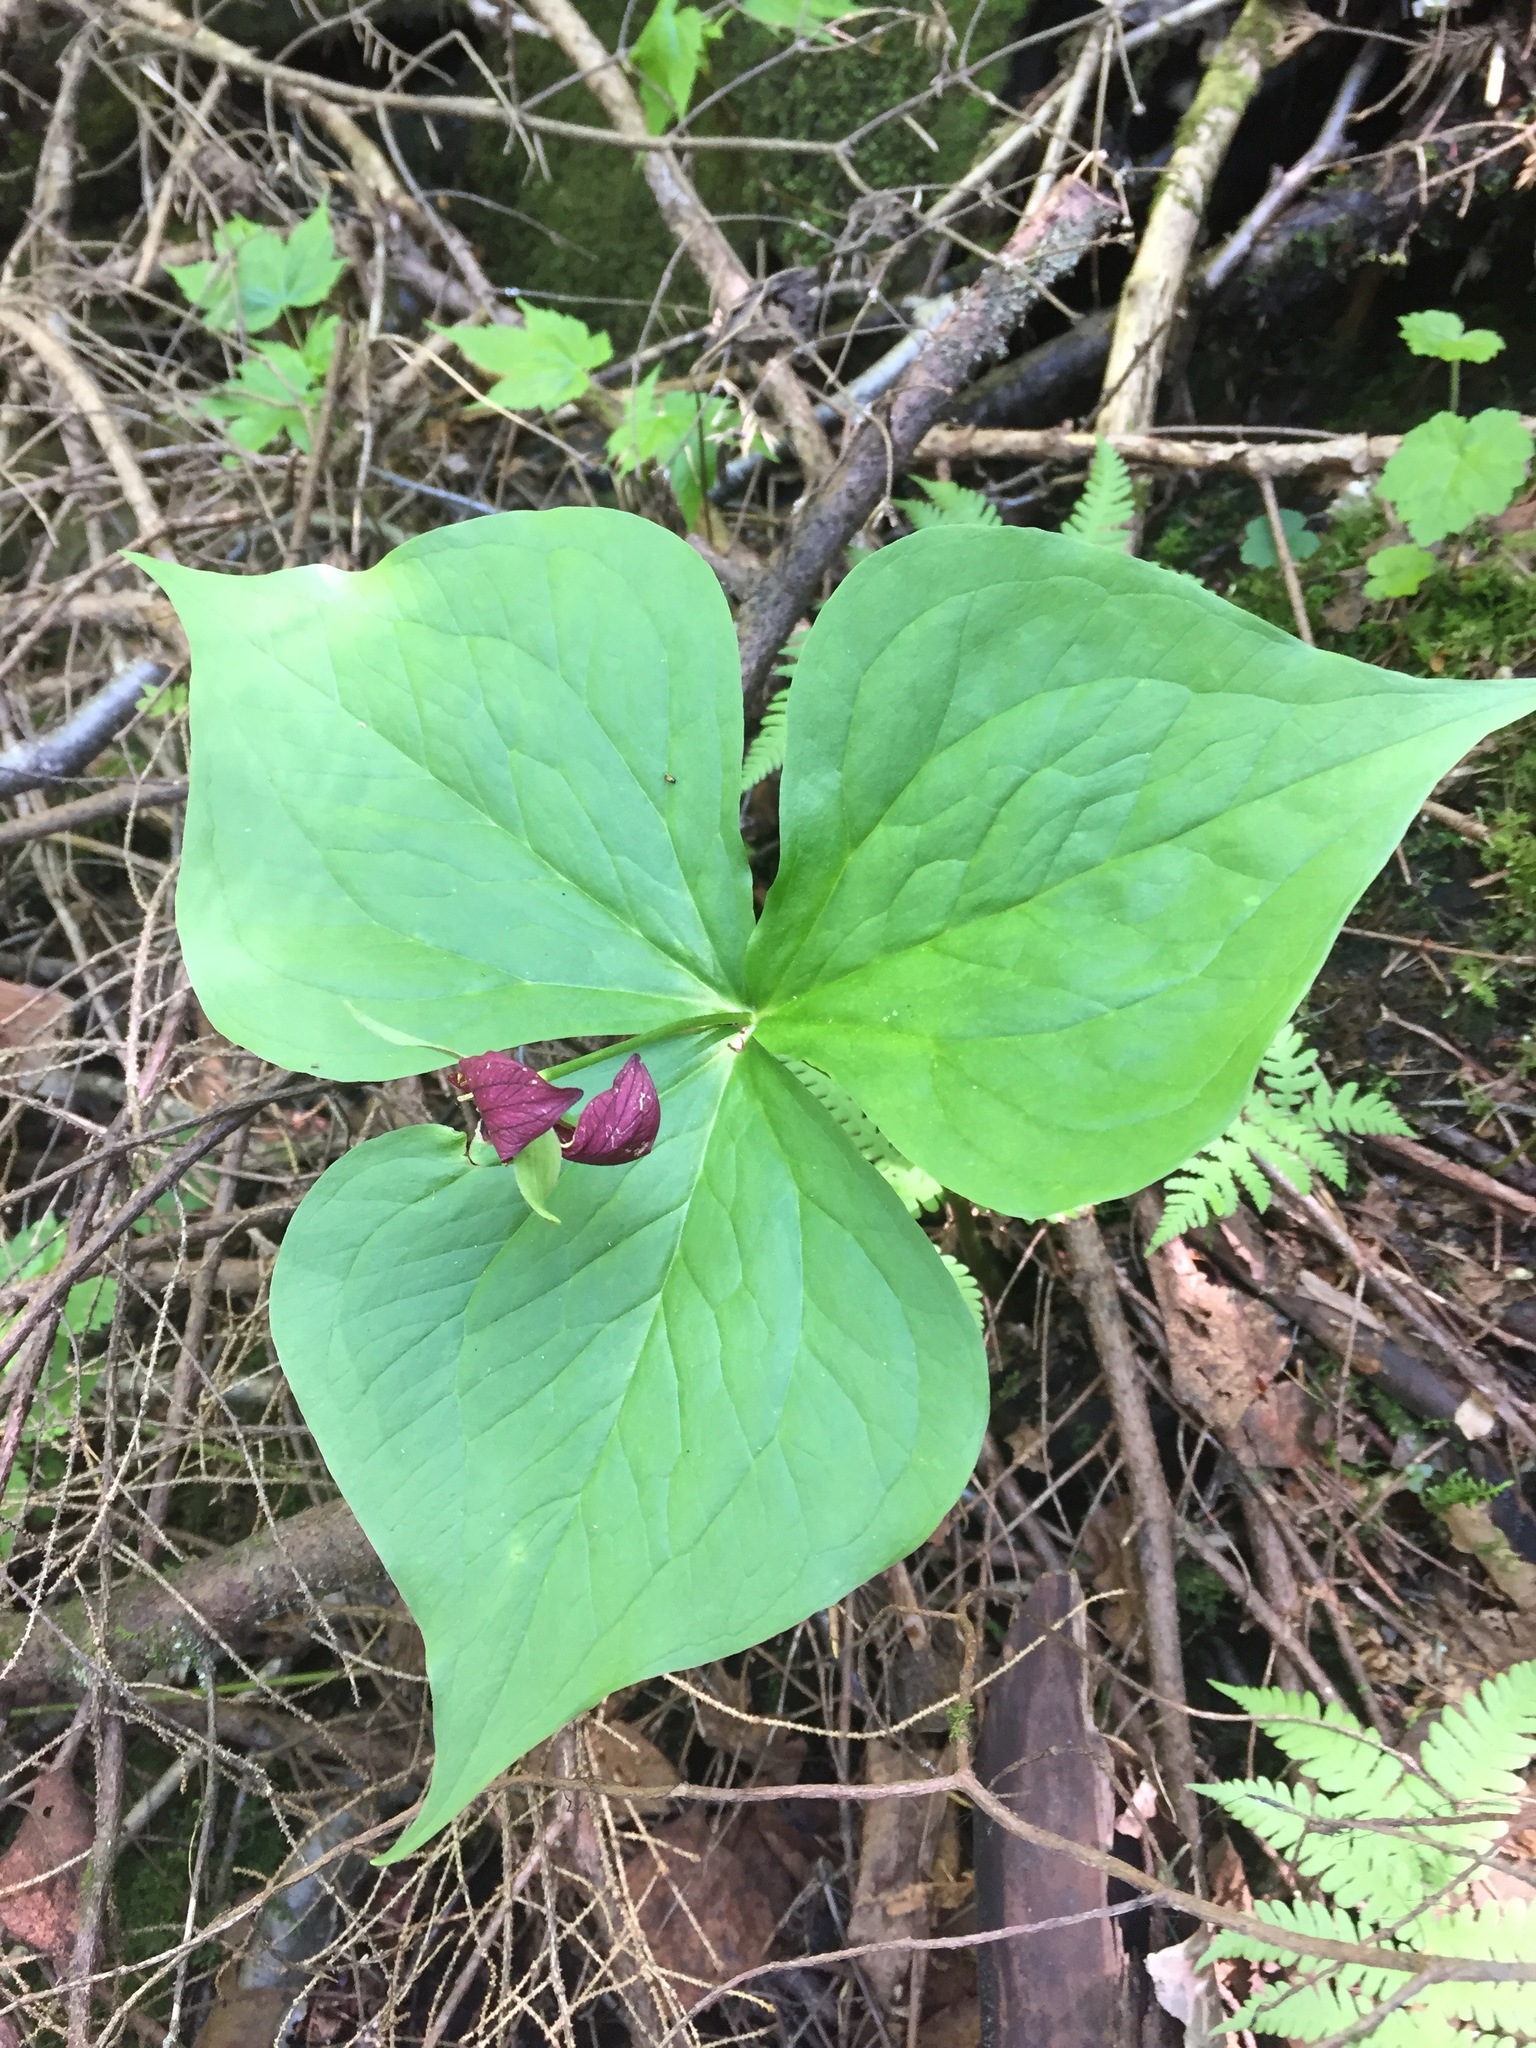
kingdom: Plantae
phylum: Tracheophyta
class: Liliopsida
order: Liliales
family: Melanthiaceae
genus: Trillium
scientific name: Trillium erectum
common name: Purple trillium
